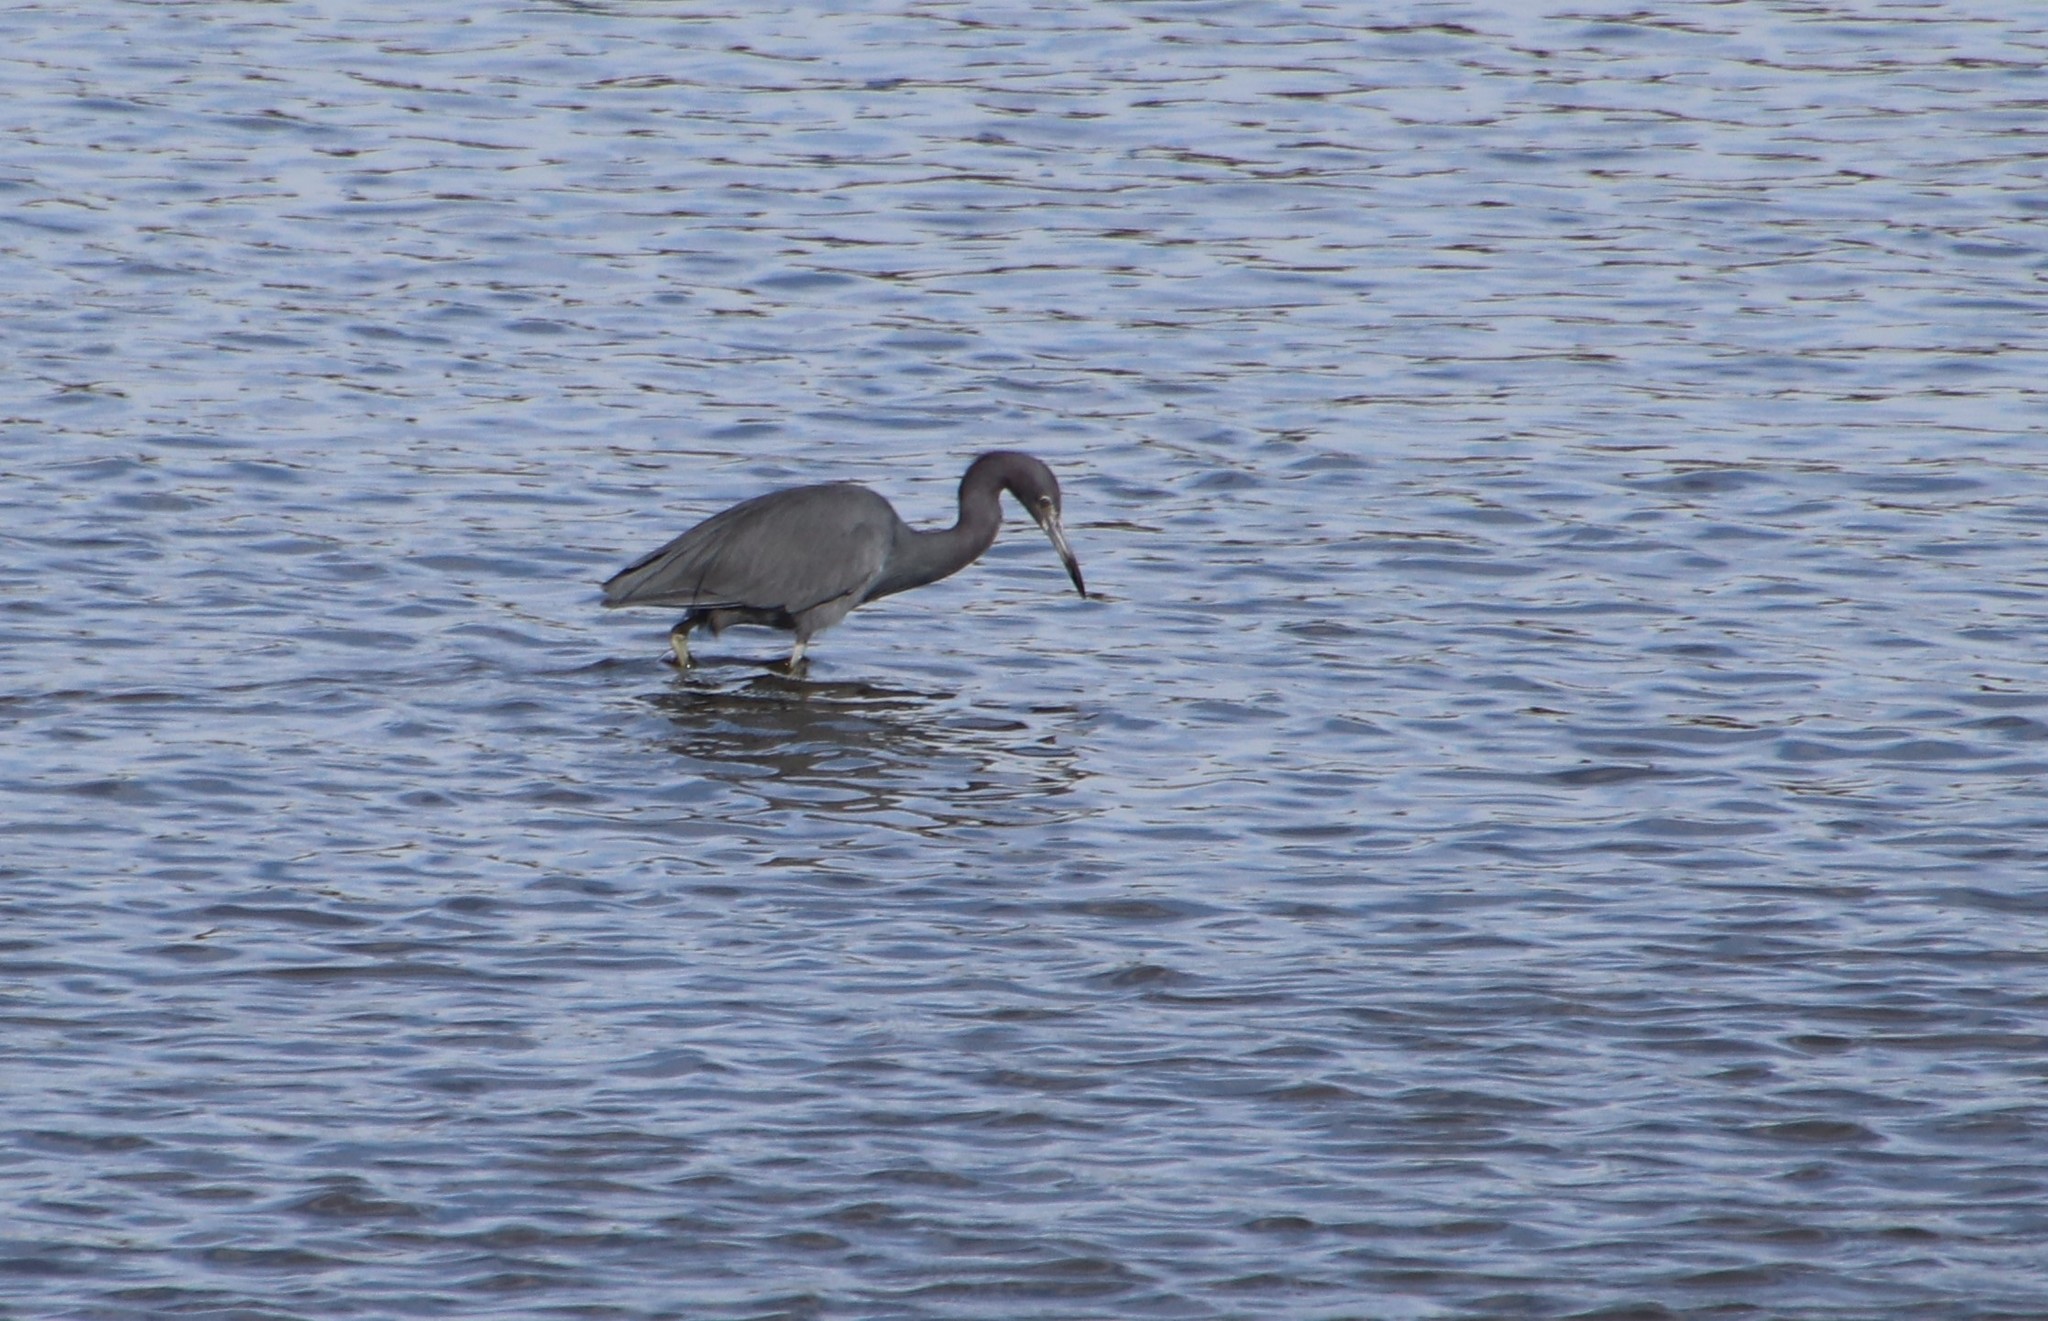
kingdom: Animalia
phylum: Chordata
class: Aves
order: Pelecaniformes
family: Ardeidae
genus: Egretta
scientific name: Egretta caerulea
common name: Little blue heron
